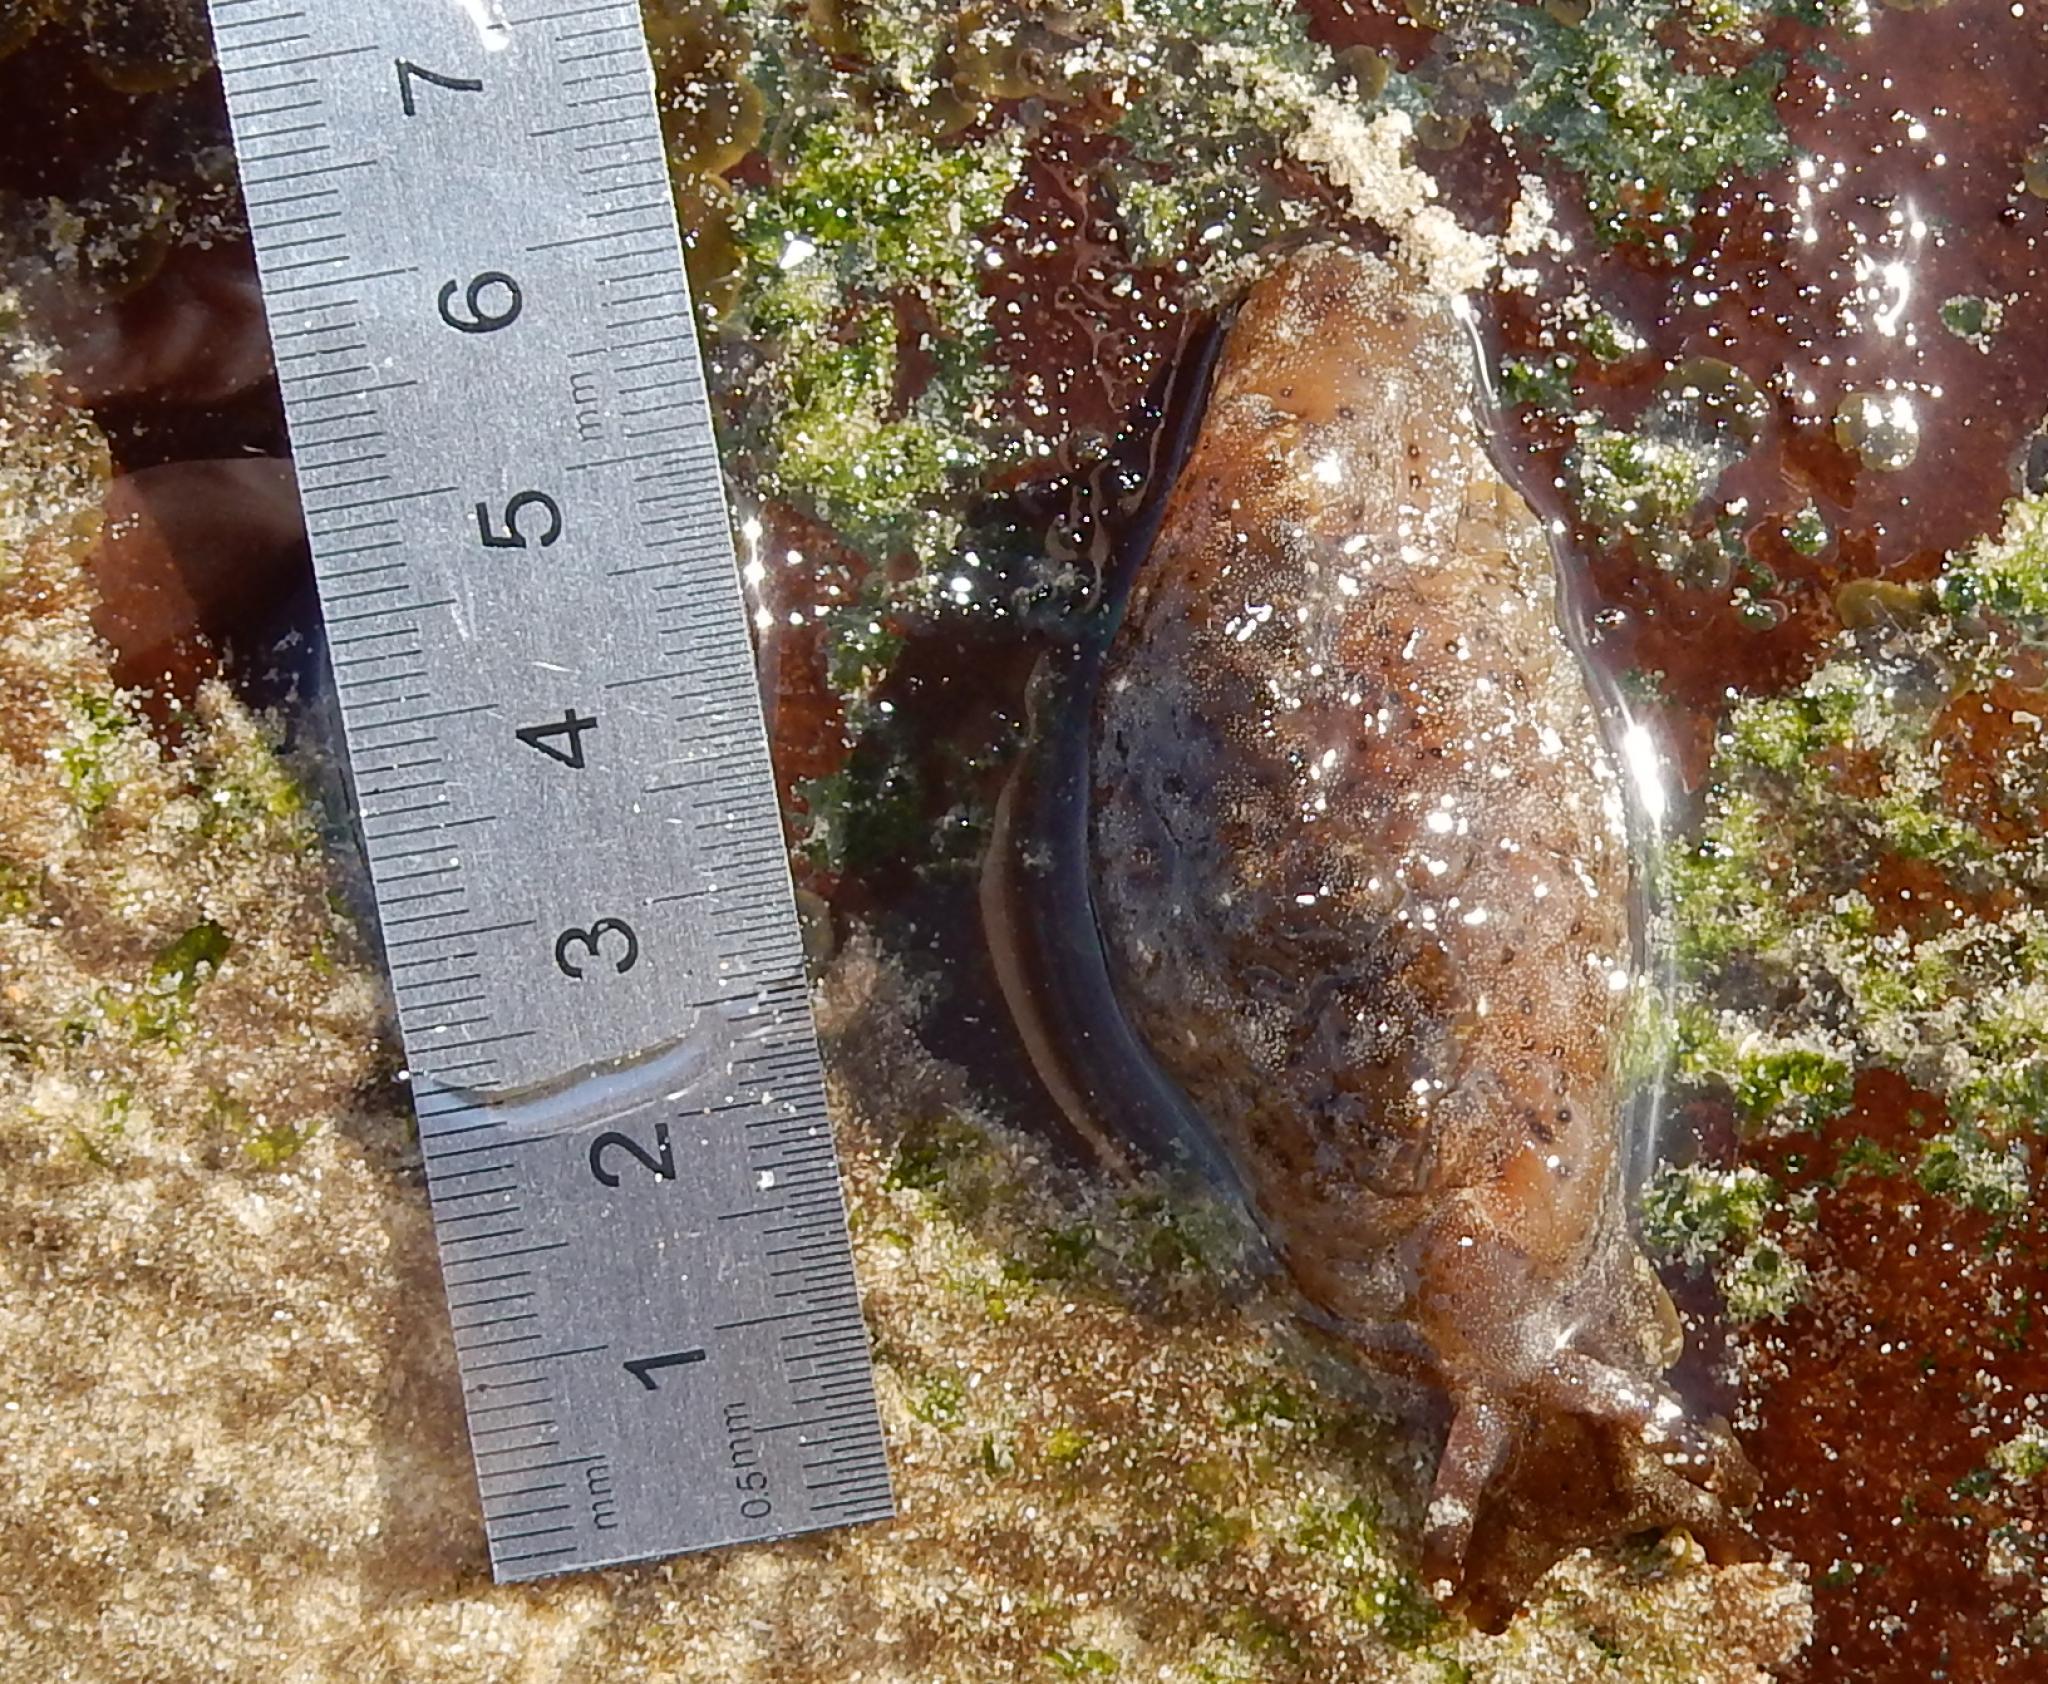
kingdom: Animalia
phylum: Mollusca
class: Gastropoda
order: Aplysiida
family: Aplysiidae
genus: Aplysia
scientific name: Aplysia oculifera
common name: Spotted sea hare
